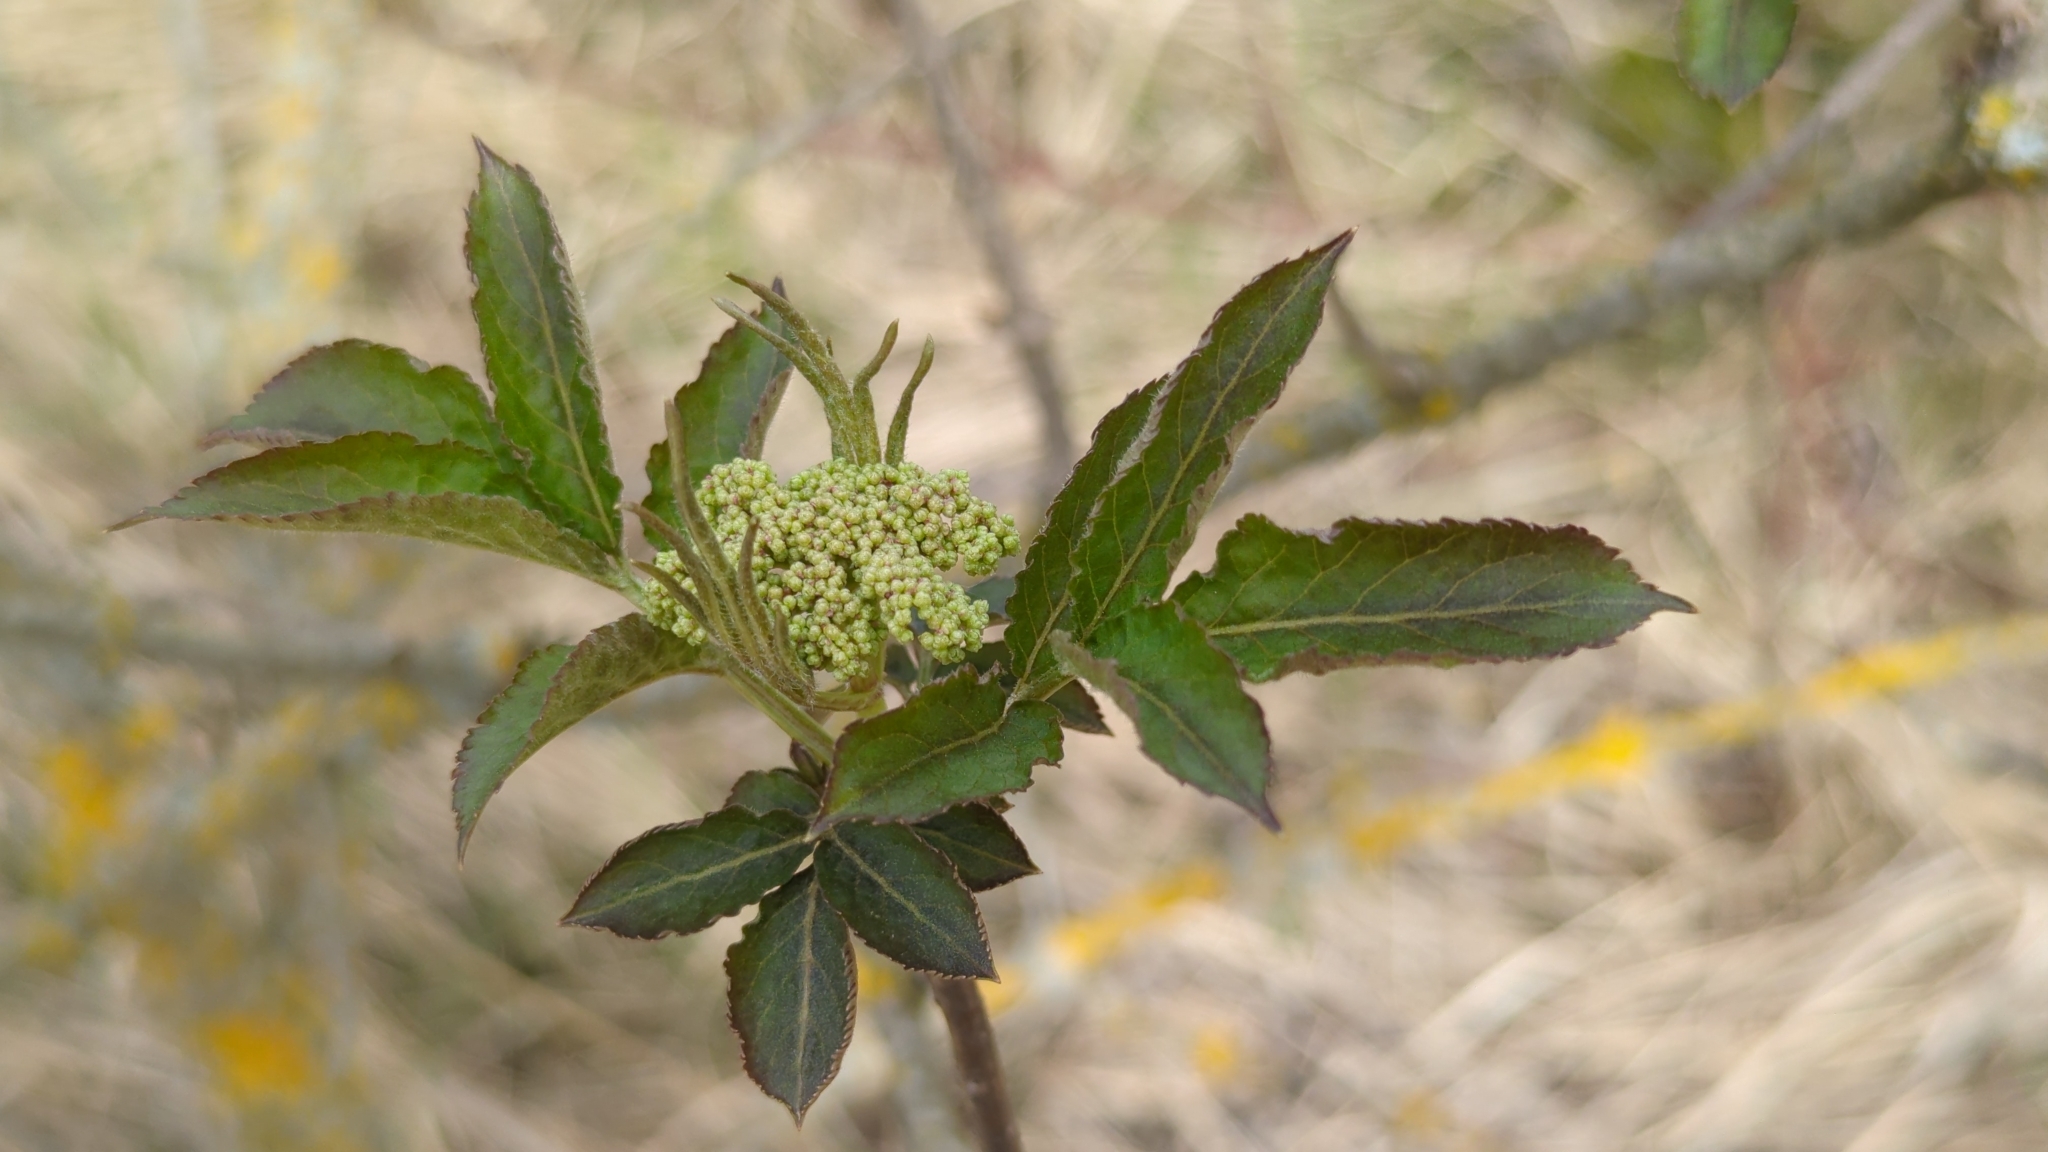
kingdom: Plantae
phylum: Tracheophyta
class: Magnoliopsida
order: Dipsacales
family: Viburnaceae
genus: Sambucus
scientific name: Sambucus nigra
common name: Elder
